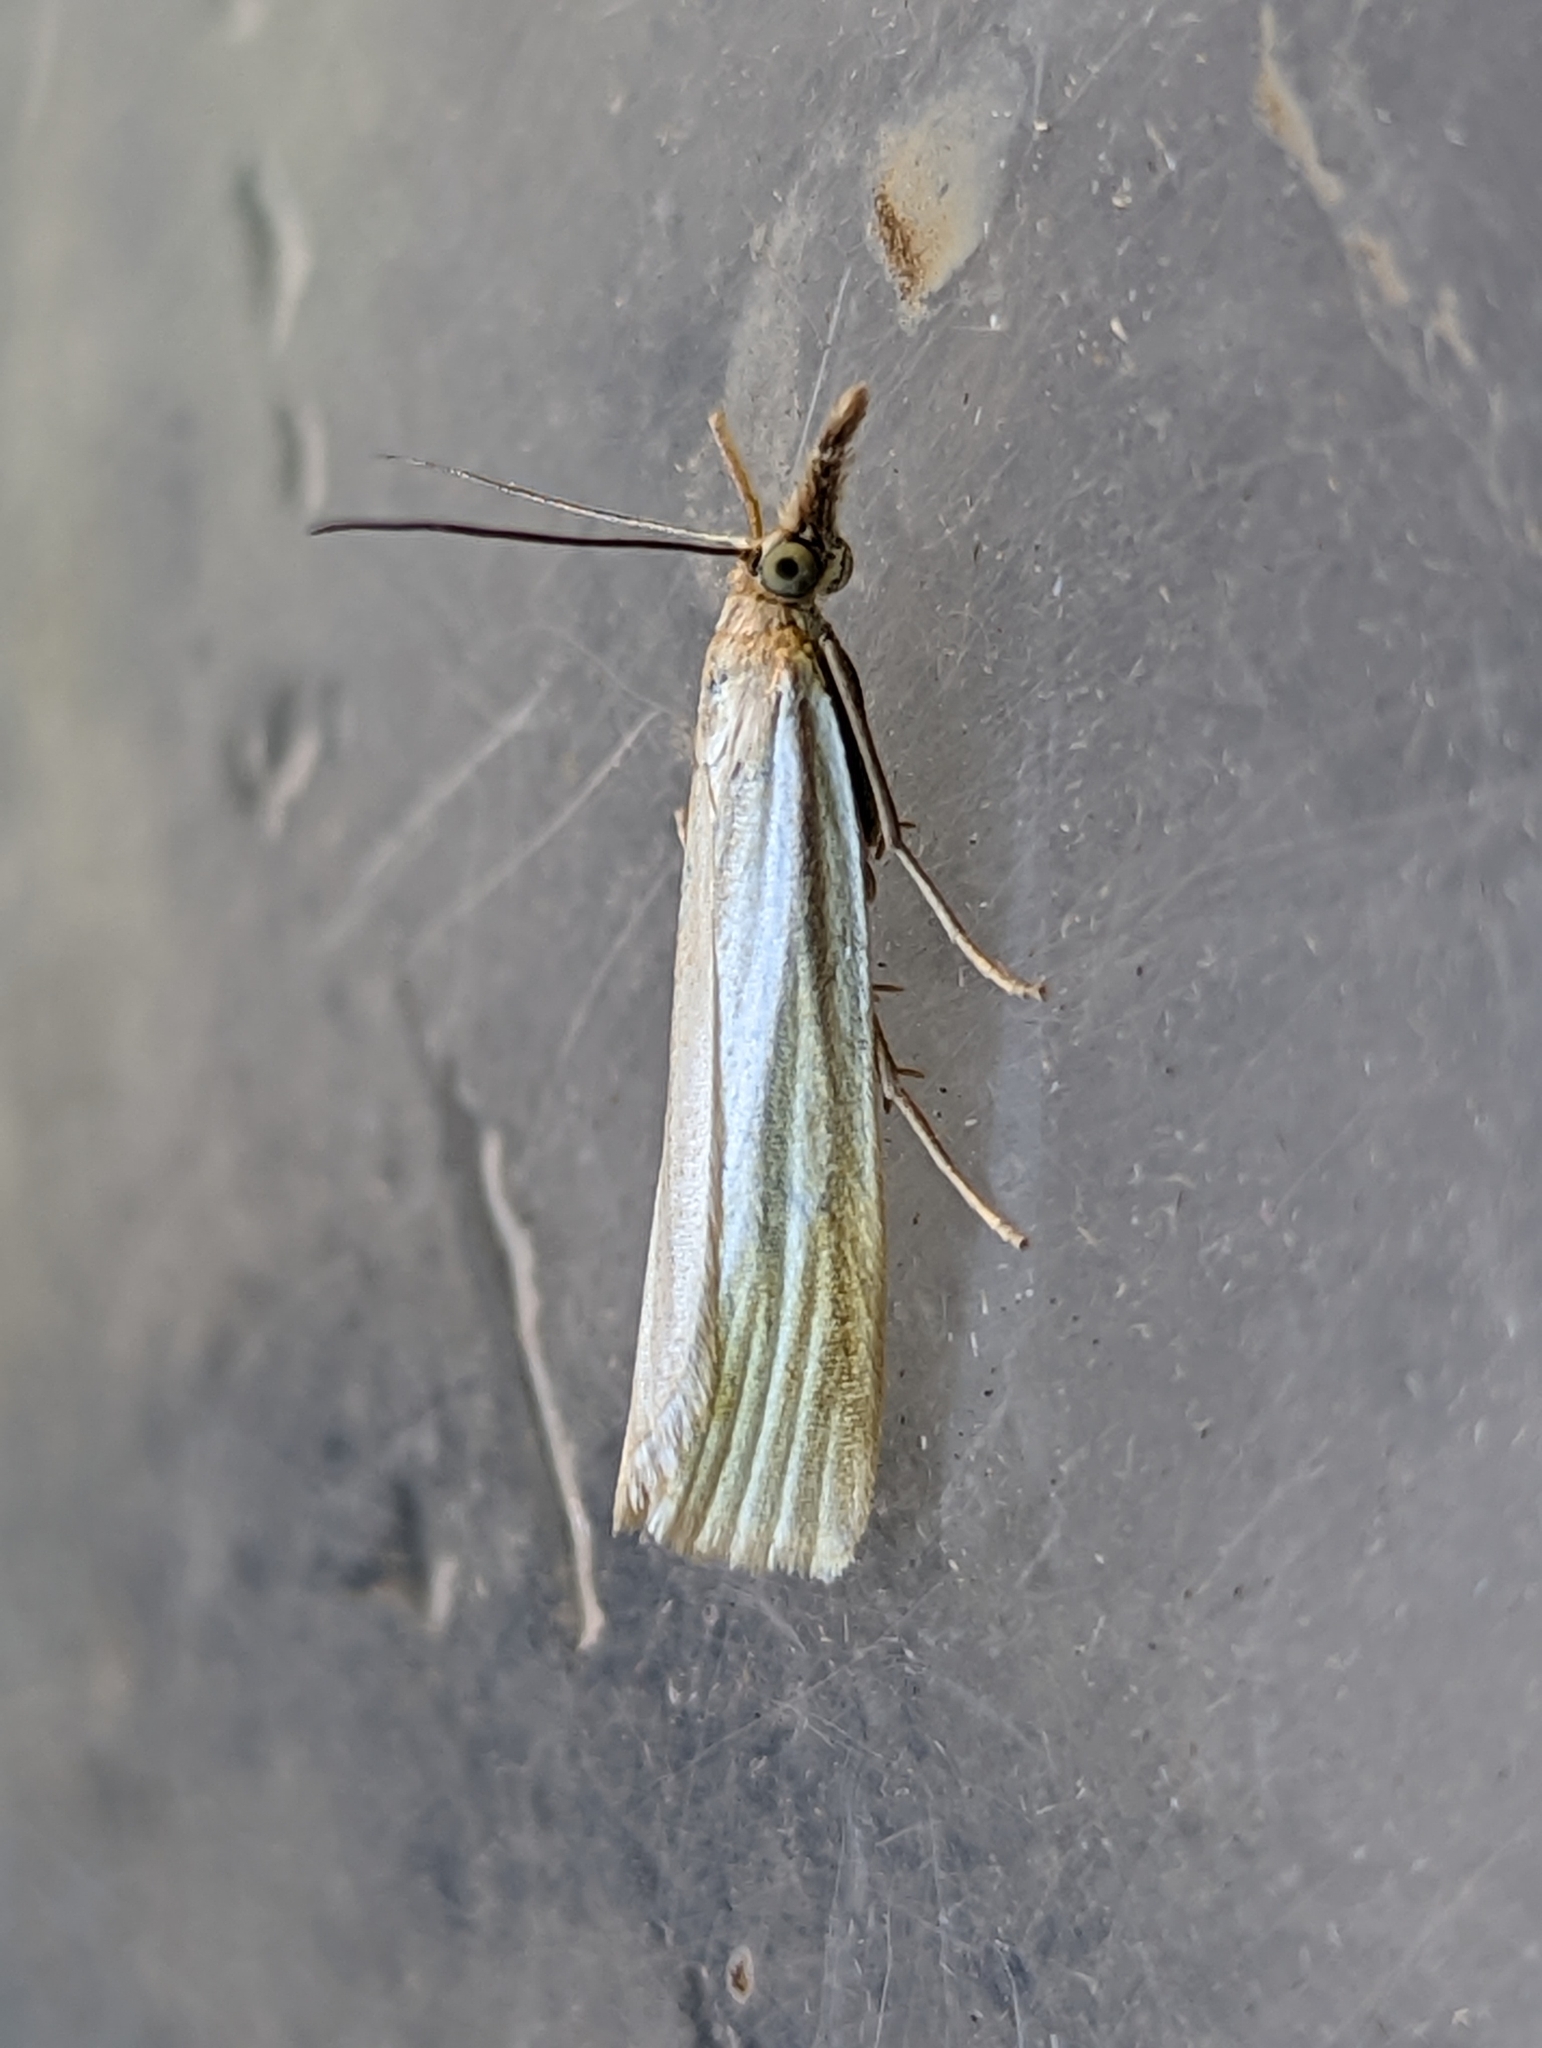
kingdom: Animalia
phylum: Arthropoda
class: Insecta
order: Lepidoptera
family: Crambidae
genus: Crambus
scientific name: Crambus perlellus
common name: Yellow satin veneer
